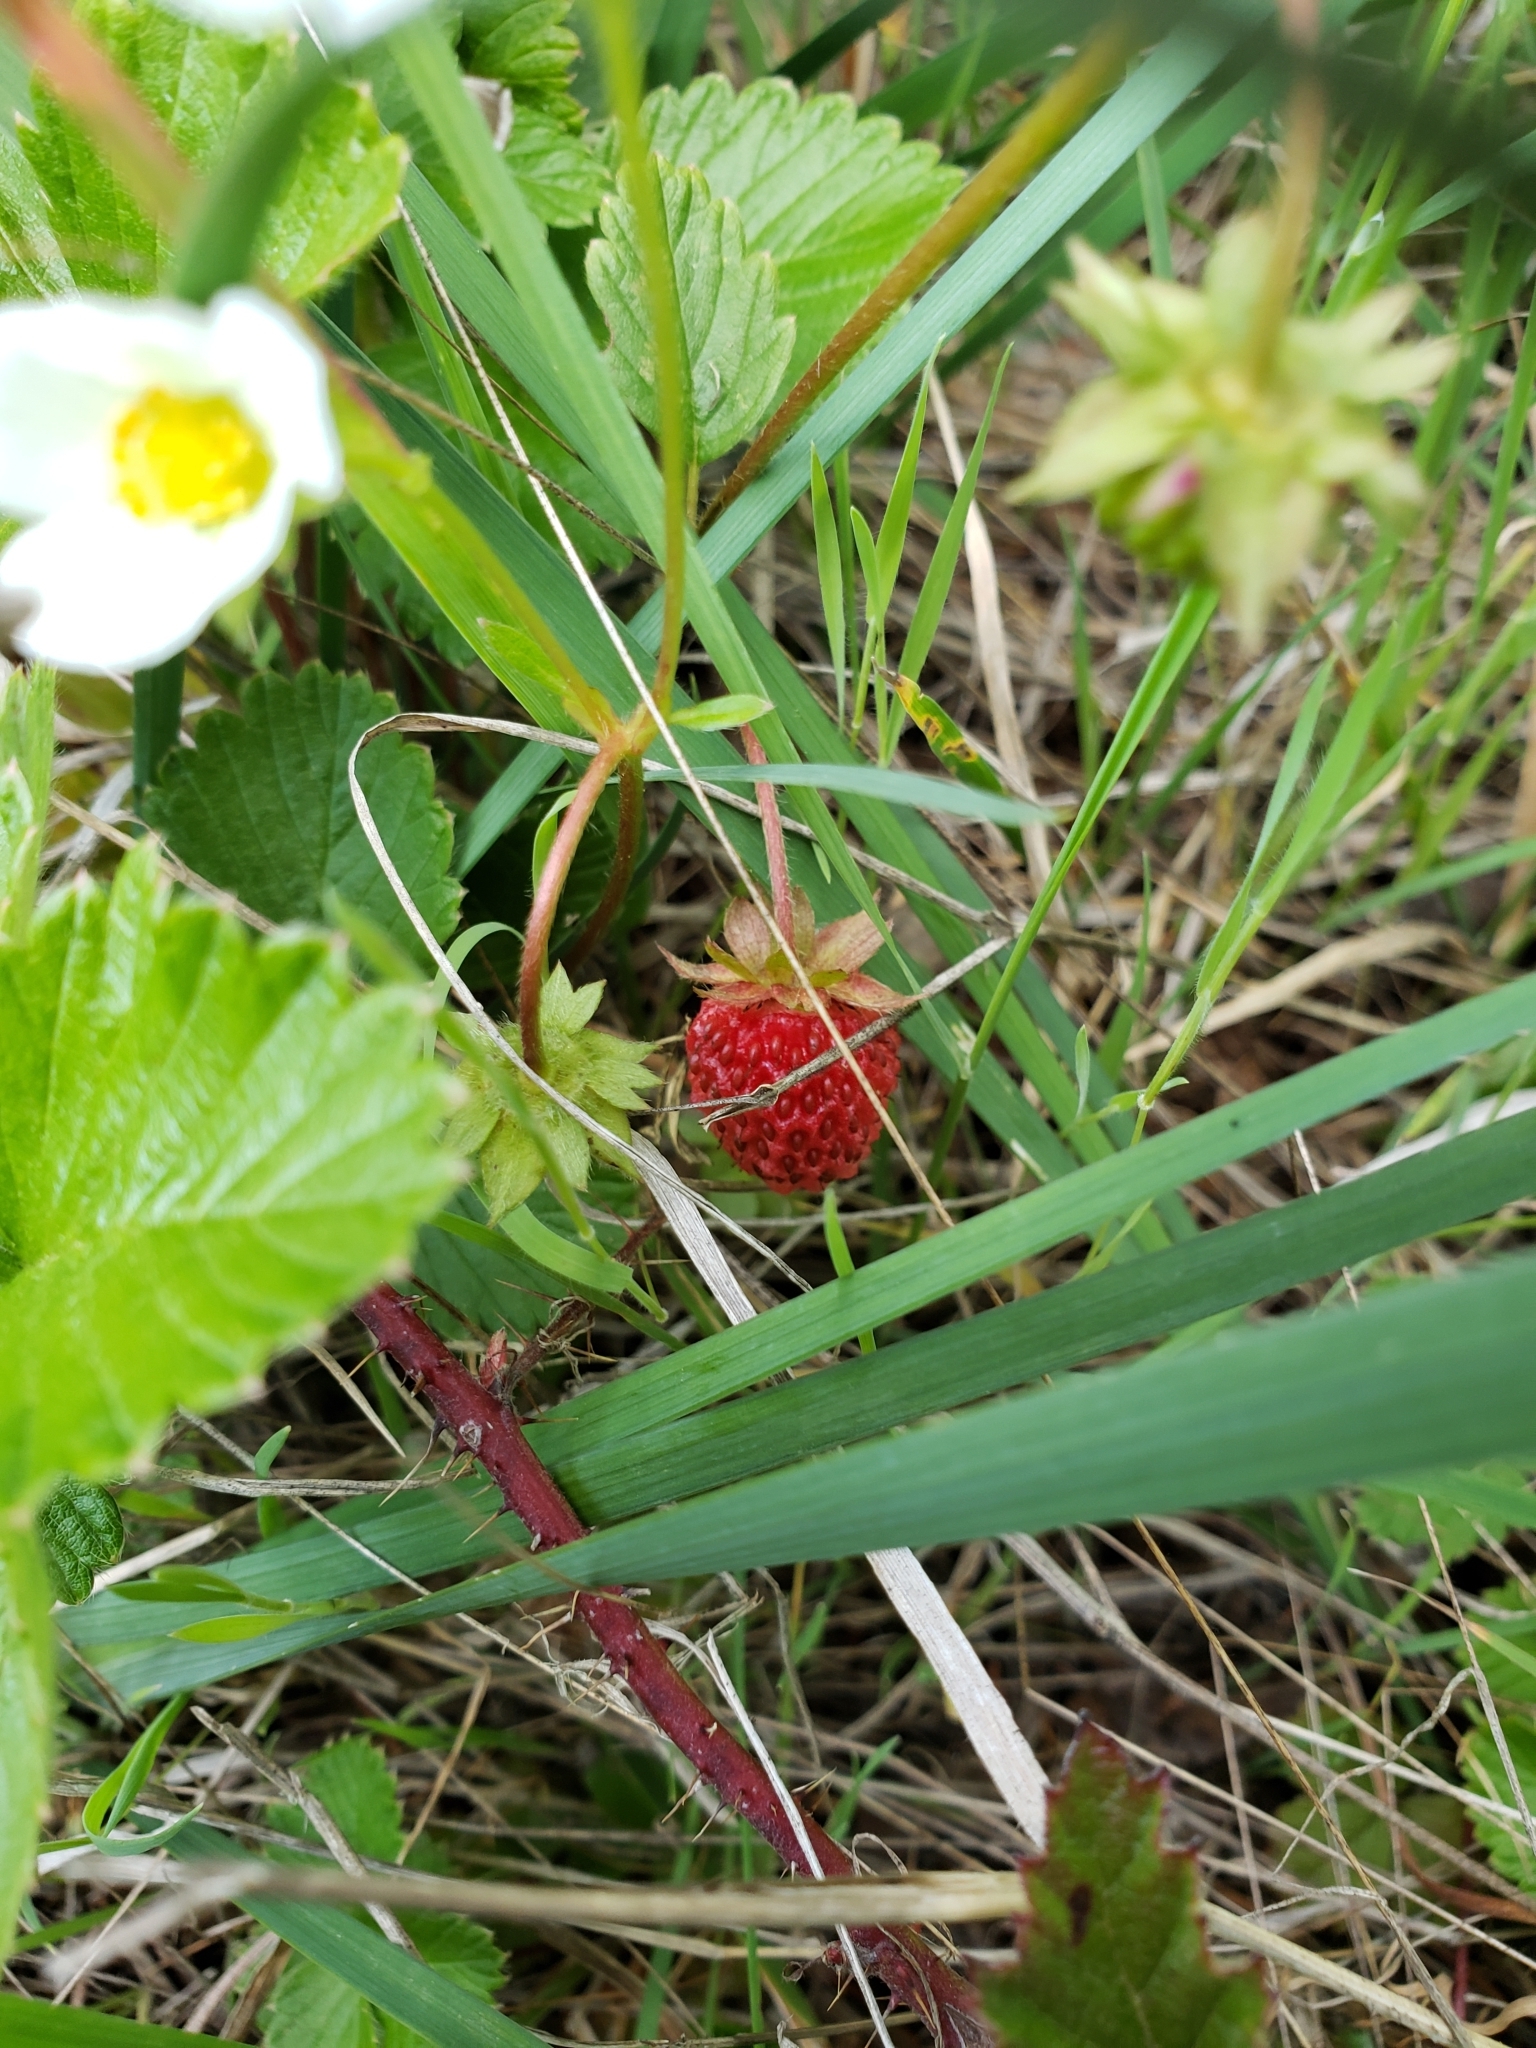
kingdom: Plantae
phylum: Tracheophyta
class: Magnoliopsida
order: Rosales
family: Rosaceae
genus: Fragaria
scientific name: Fragaria vesca
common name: Wild strawberry
